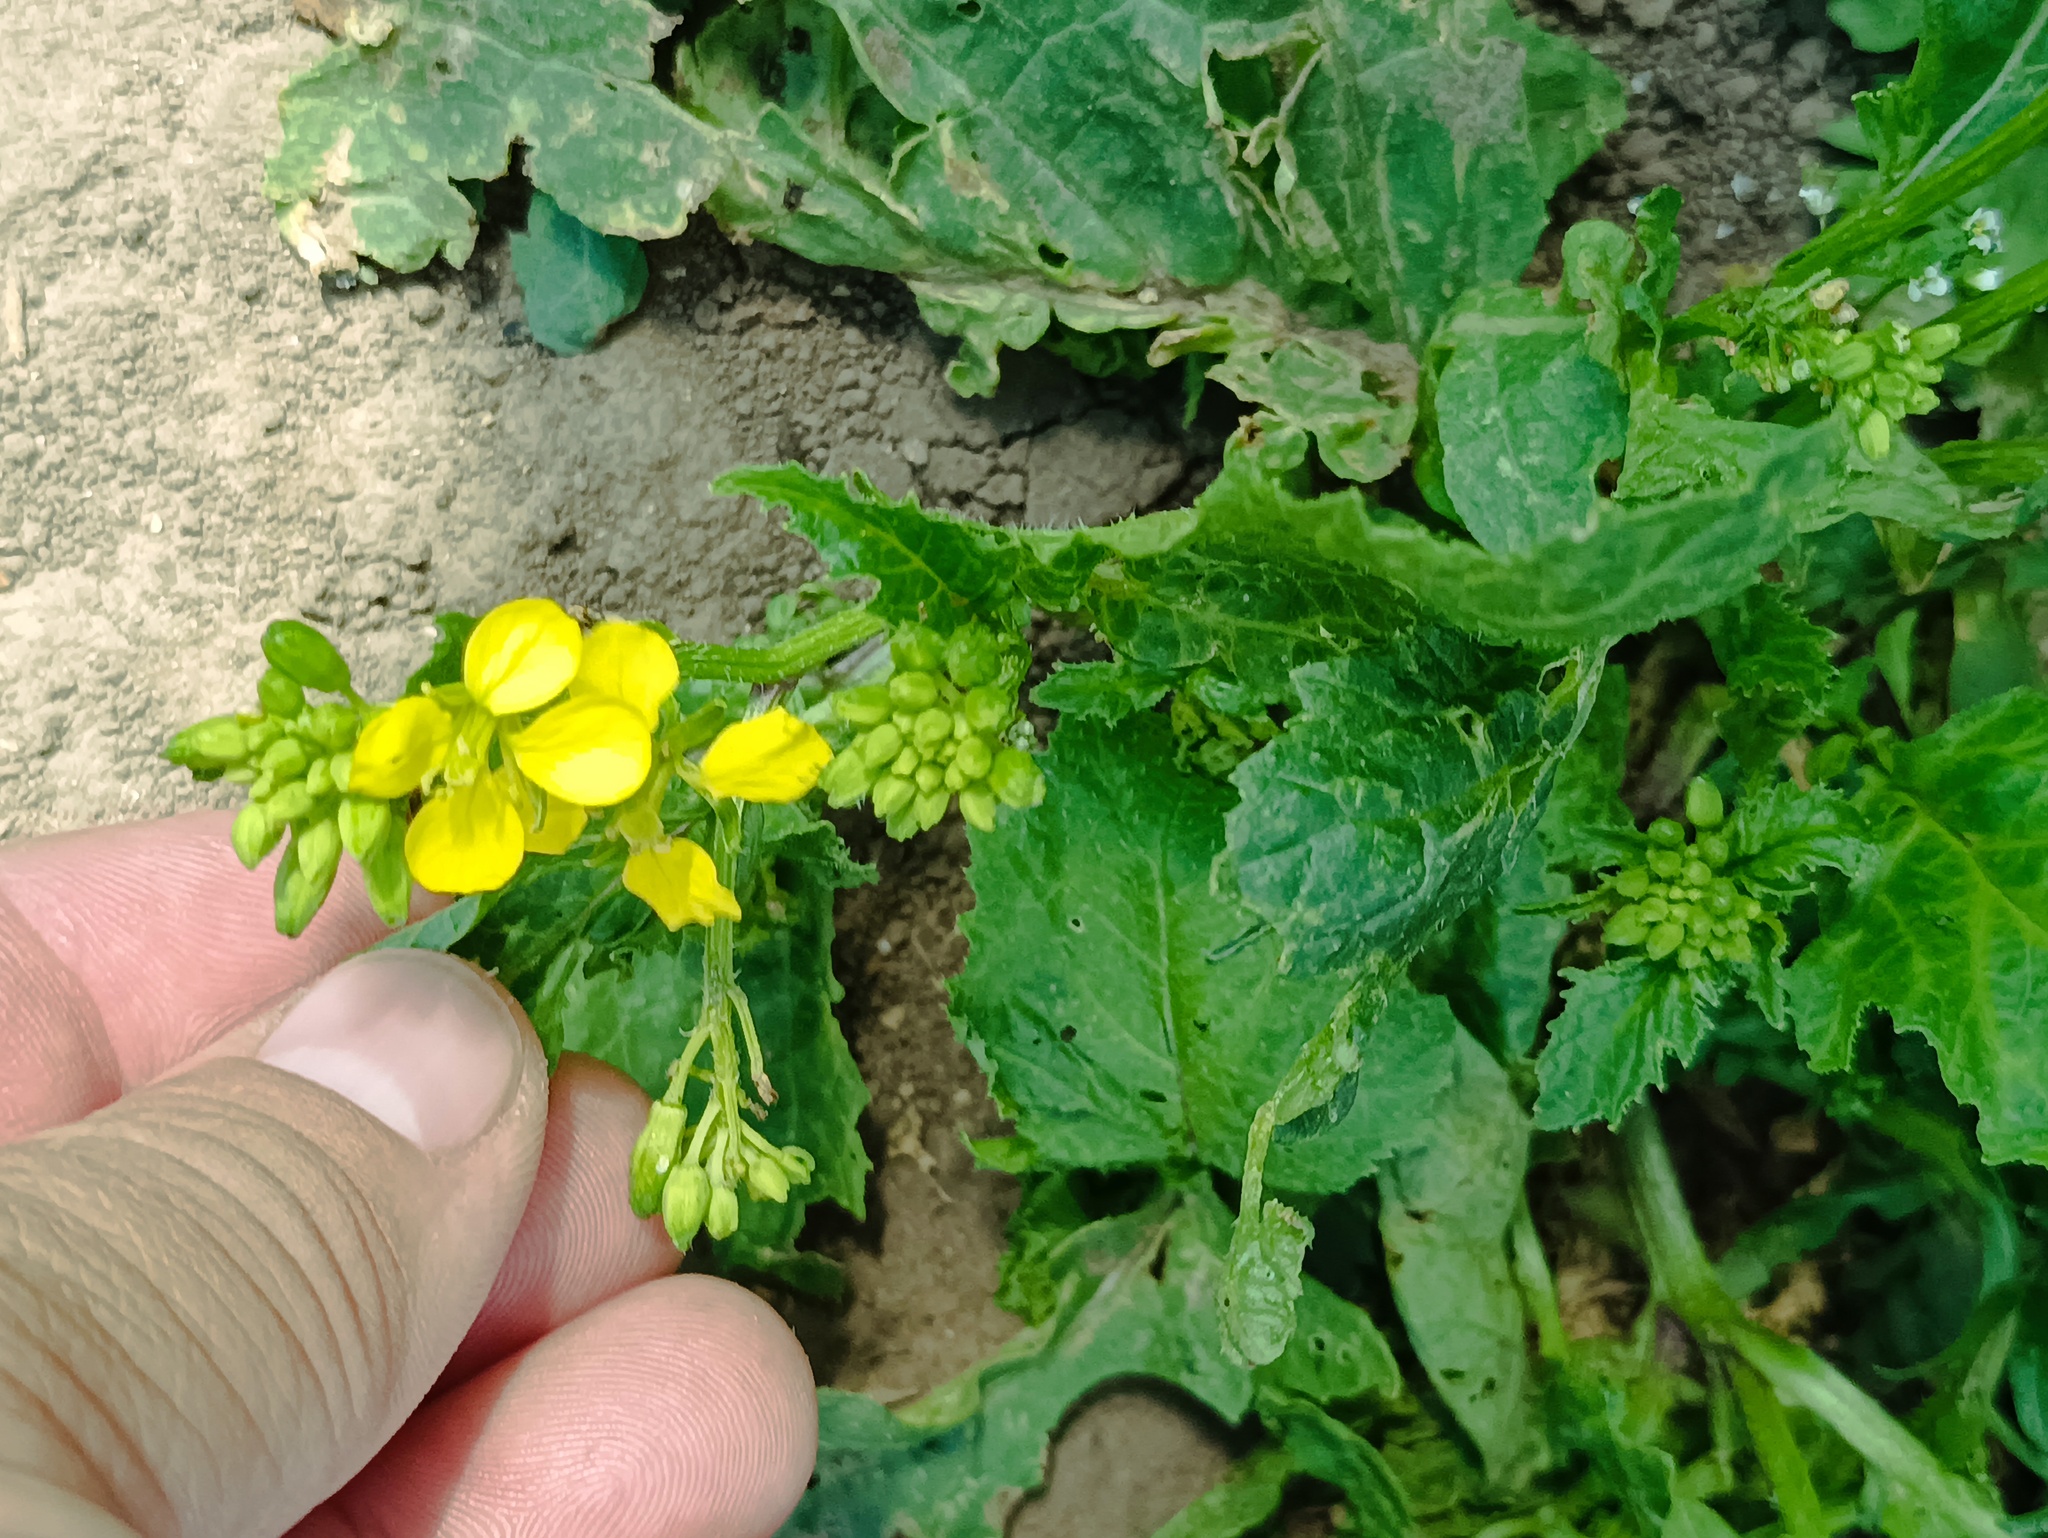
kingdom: Plantae
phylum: Tracheophyta
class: Magnoliopsida
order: Brassicales
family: Brassicaceae
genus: Sinapis
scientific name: Sinapis arvensis
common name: Charlock
